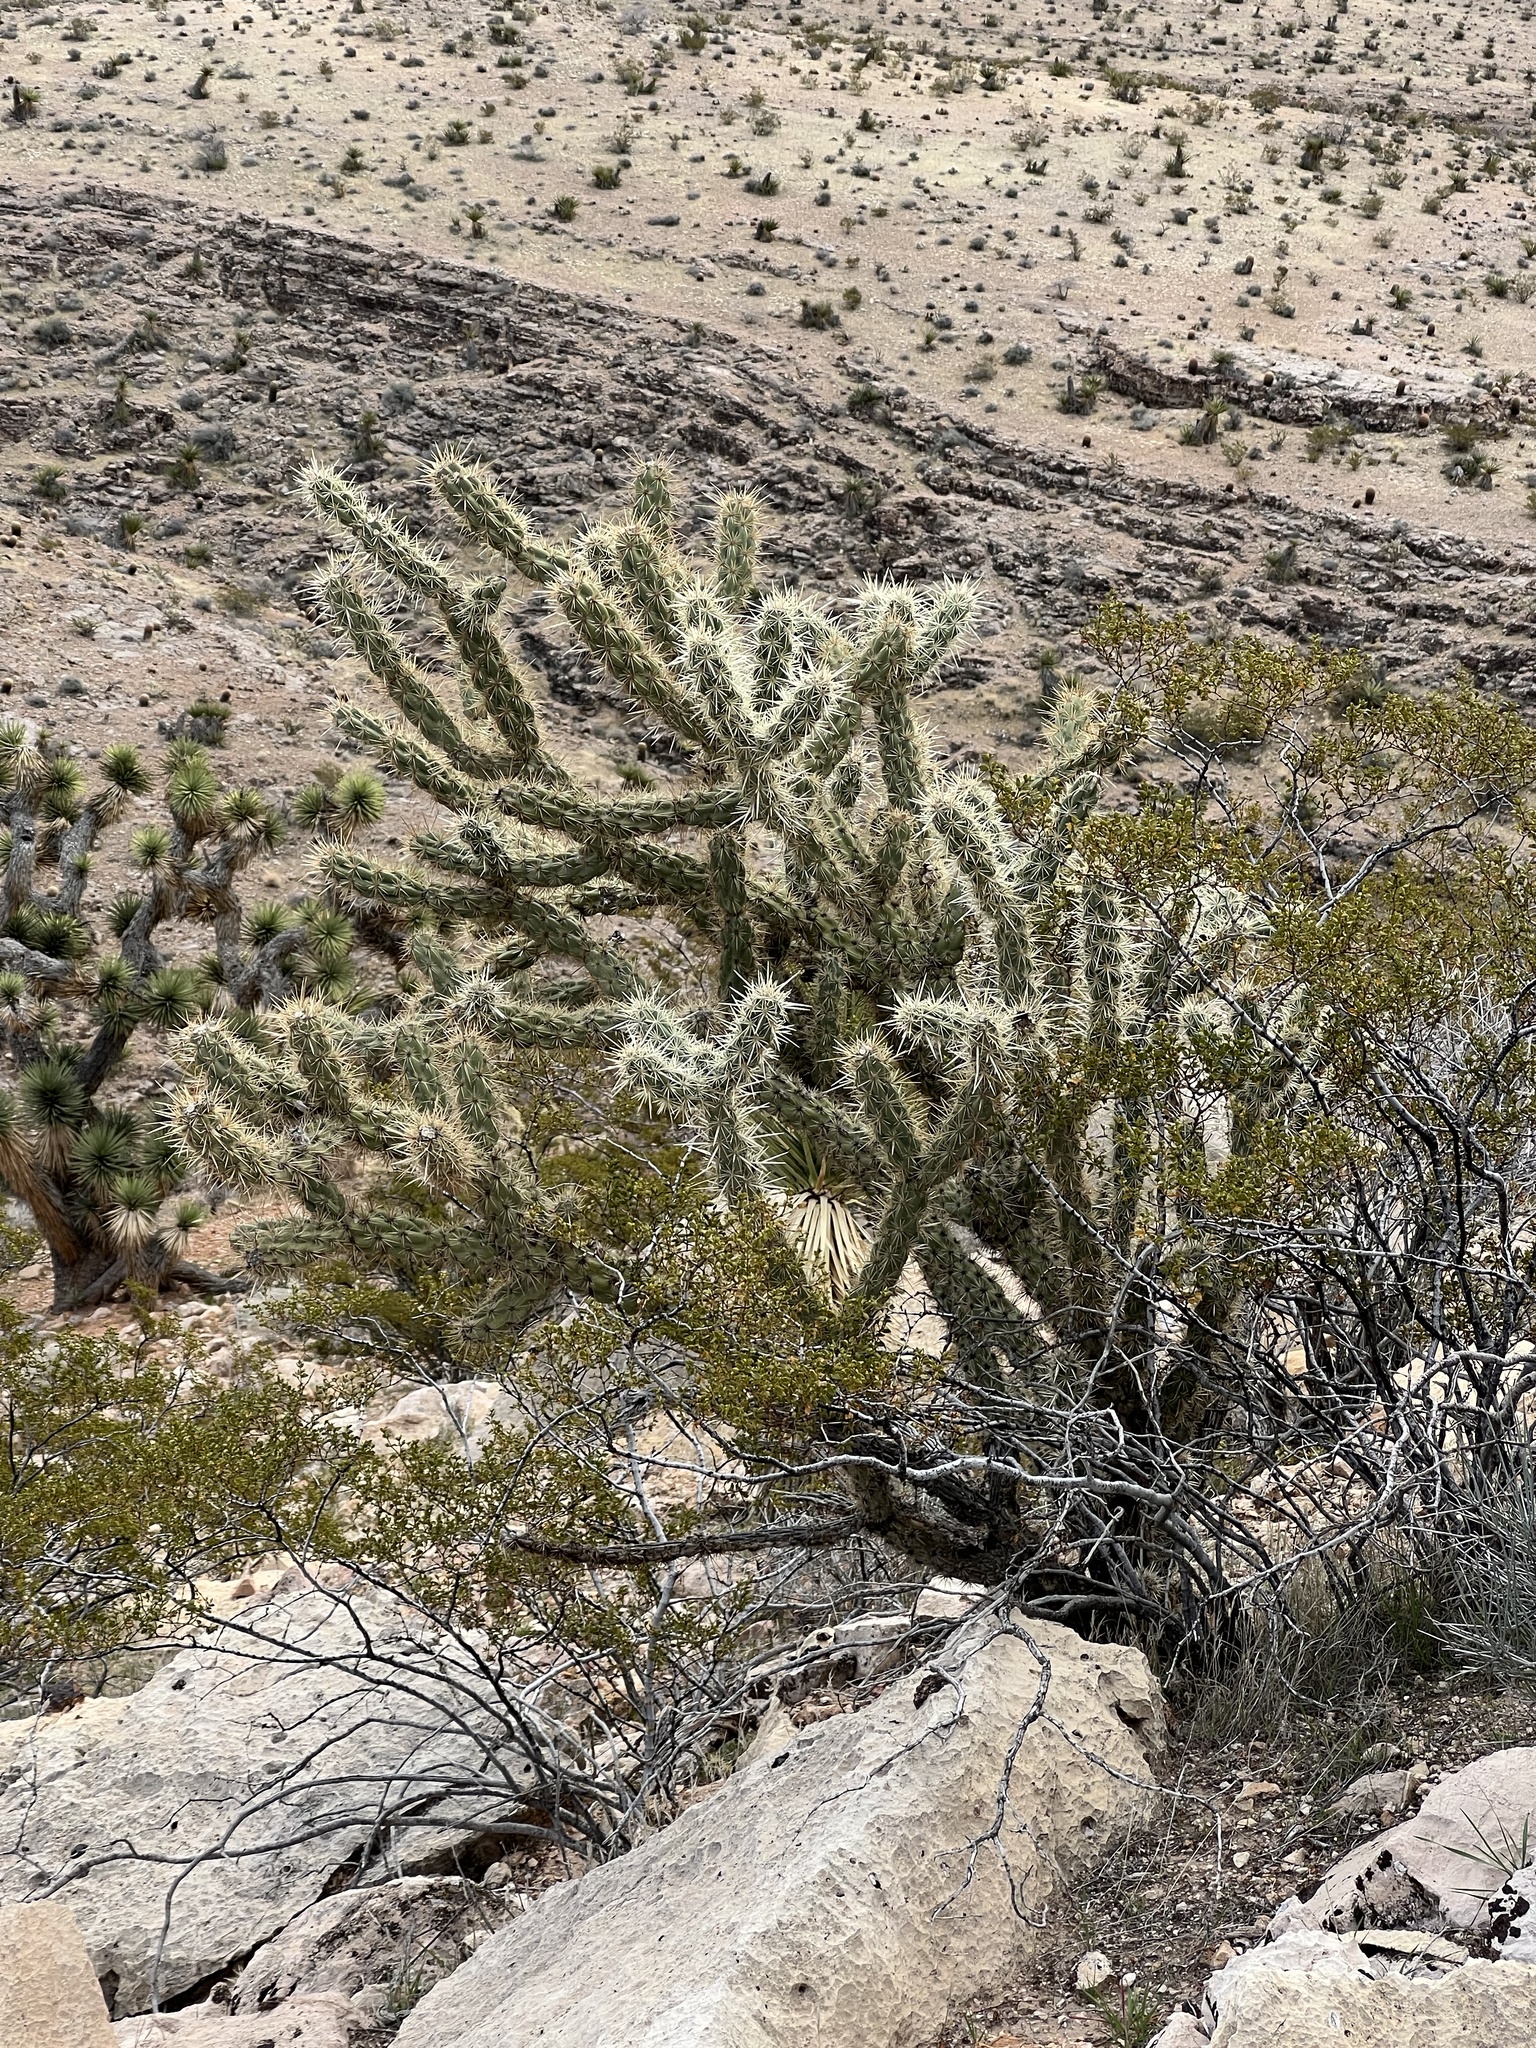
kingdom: Plantae
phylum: Tracheophyta
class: Magnoliopsida
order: Caryophyllales
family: Cactaceae
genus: Cylindropuntia
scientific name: Cylindropuntia acanthocarpa
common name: Buckhorn cholla
